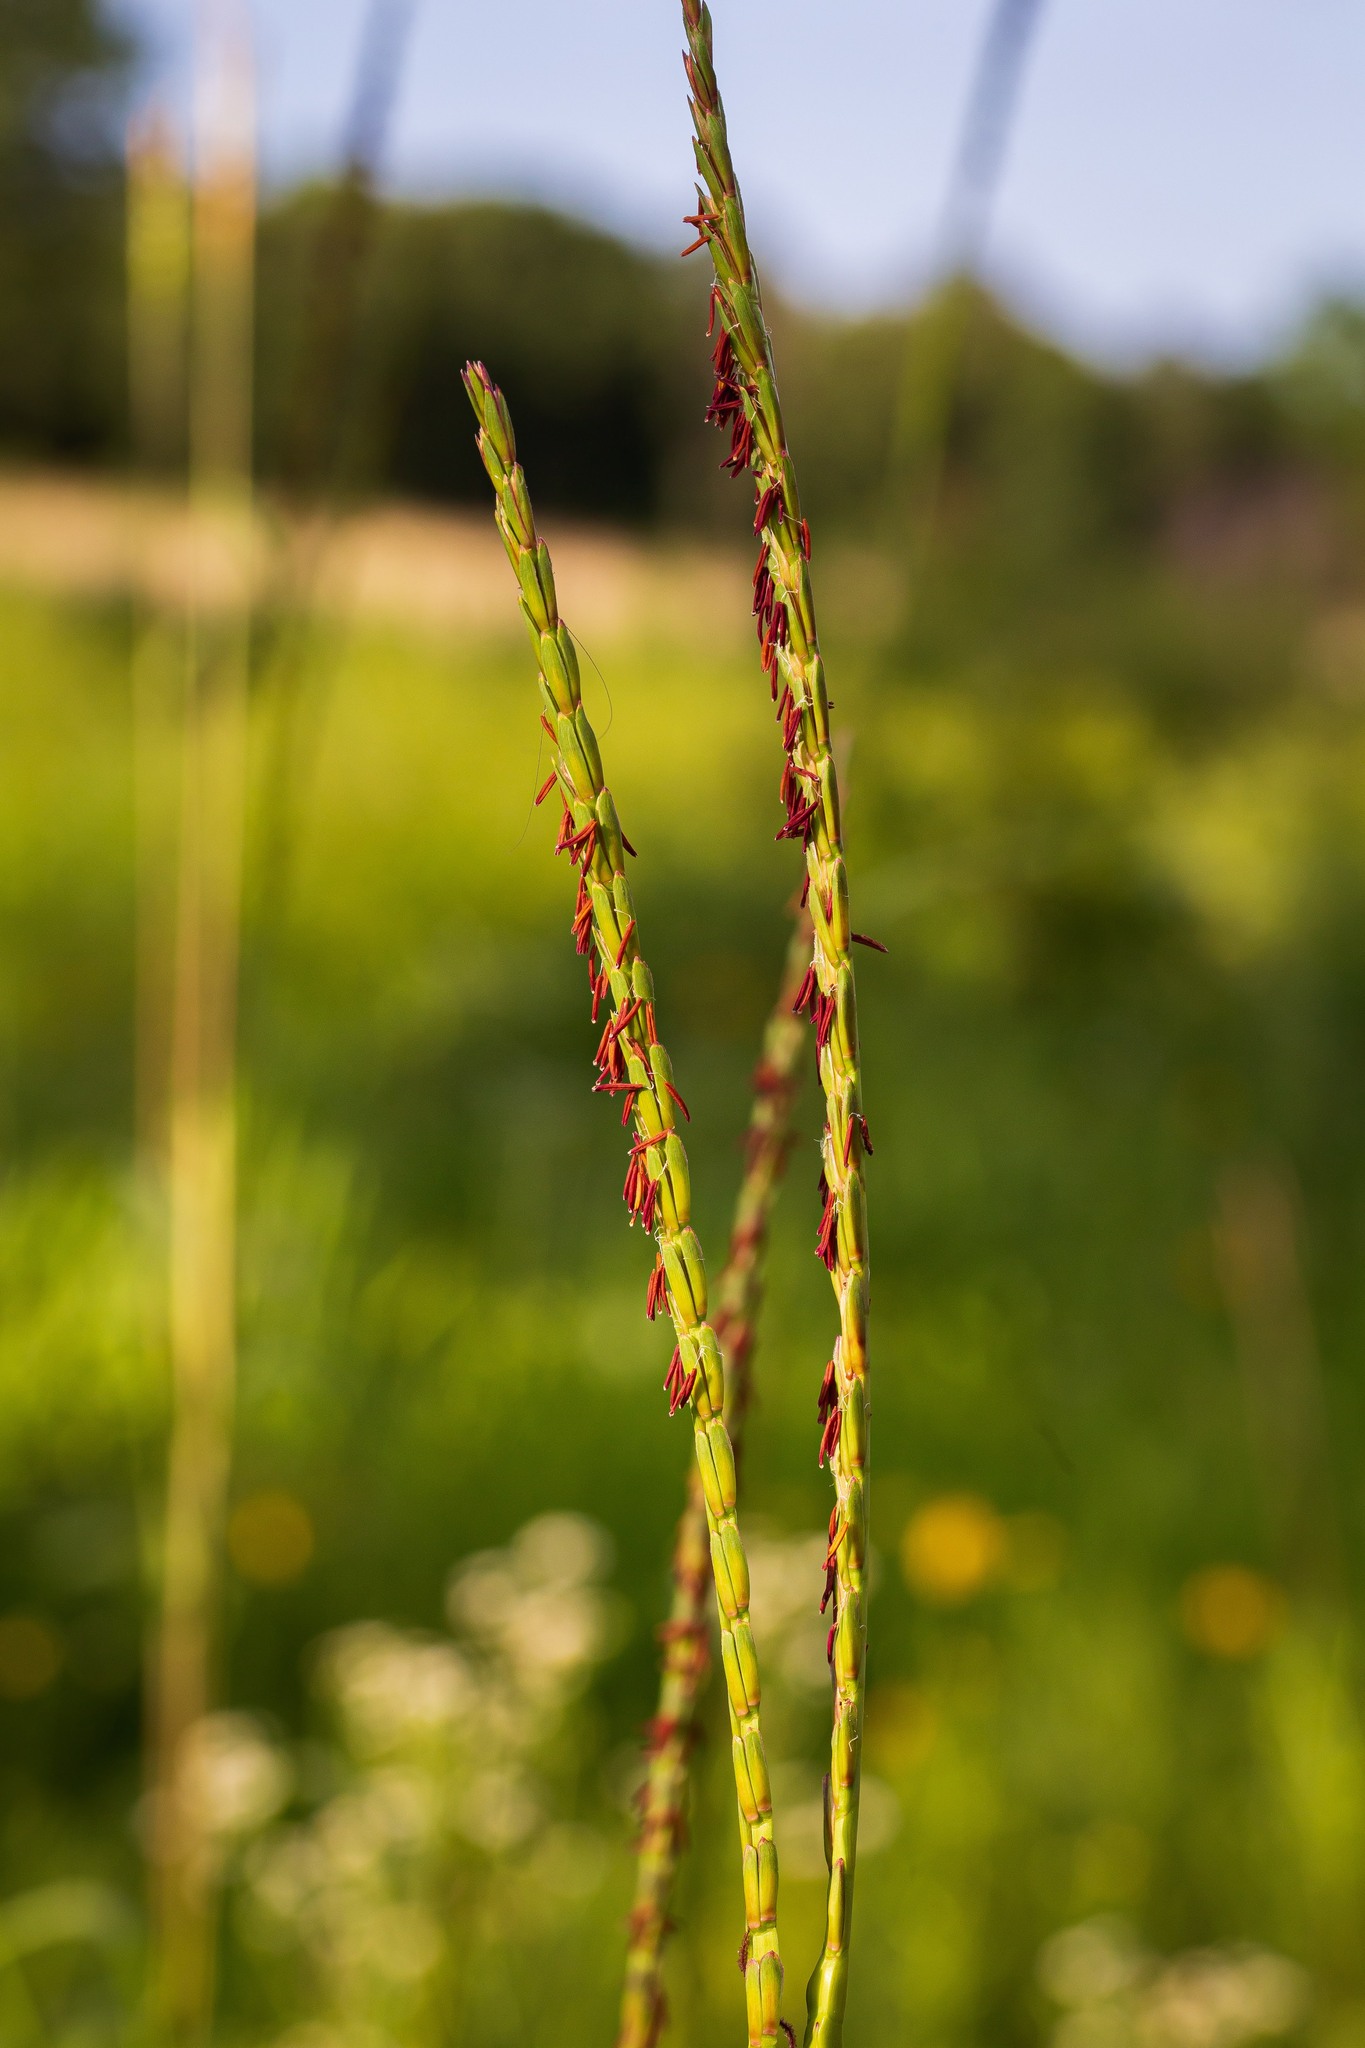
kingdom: Plantae
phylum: Tracheophyta
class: Liliopsida
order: Poales
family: Poaceae
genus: Tripsacum
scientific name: Tripsacum dactyloides
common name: Buffalo-grass
